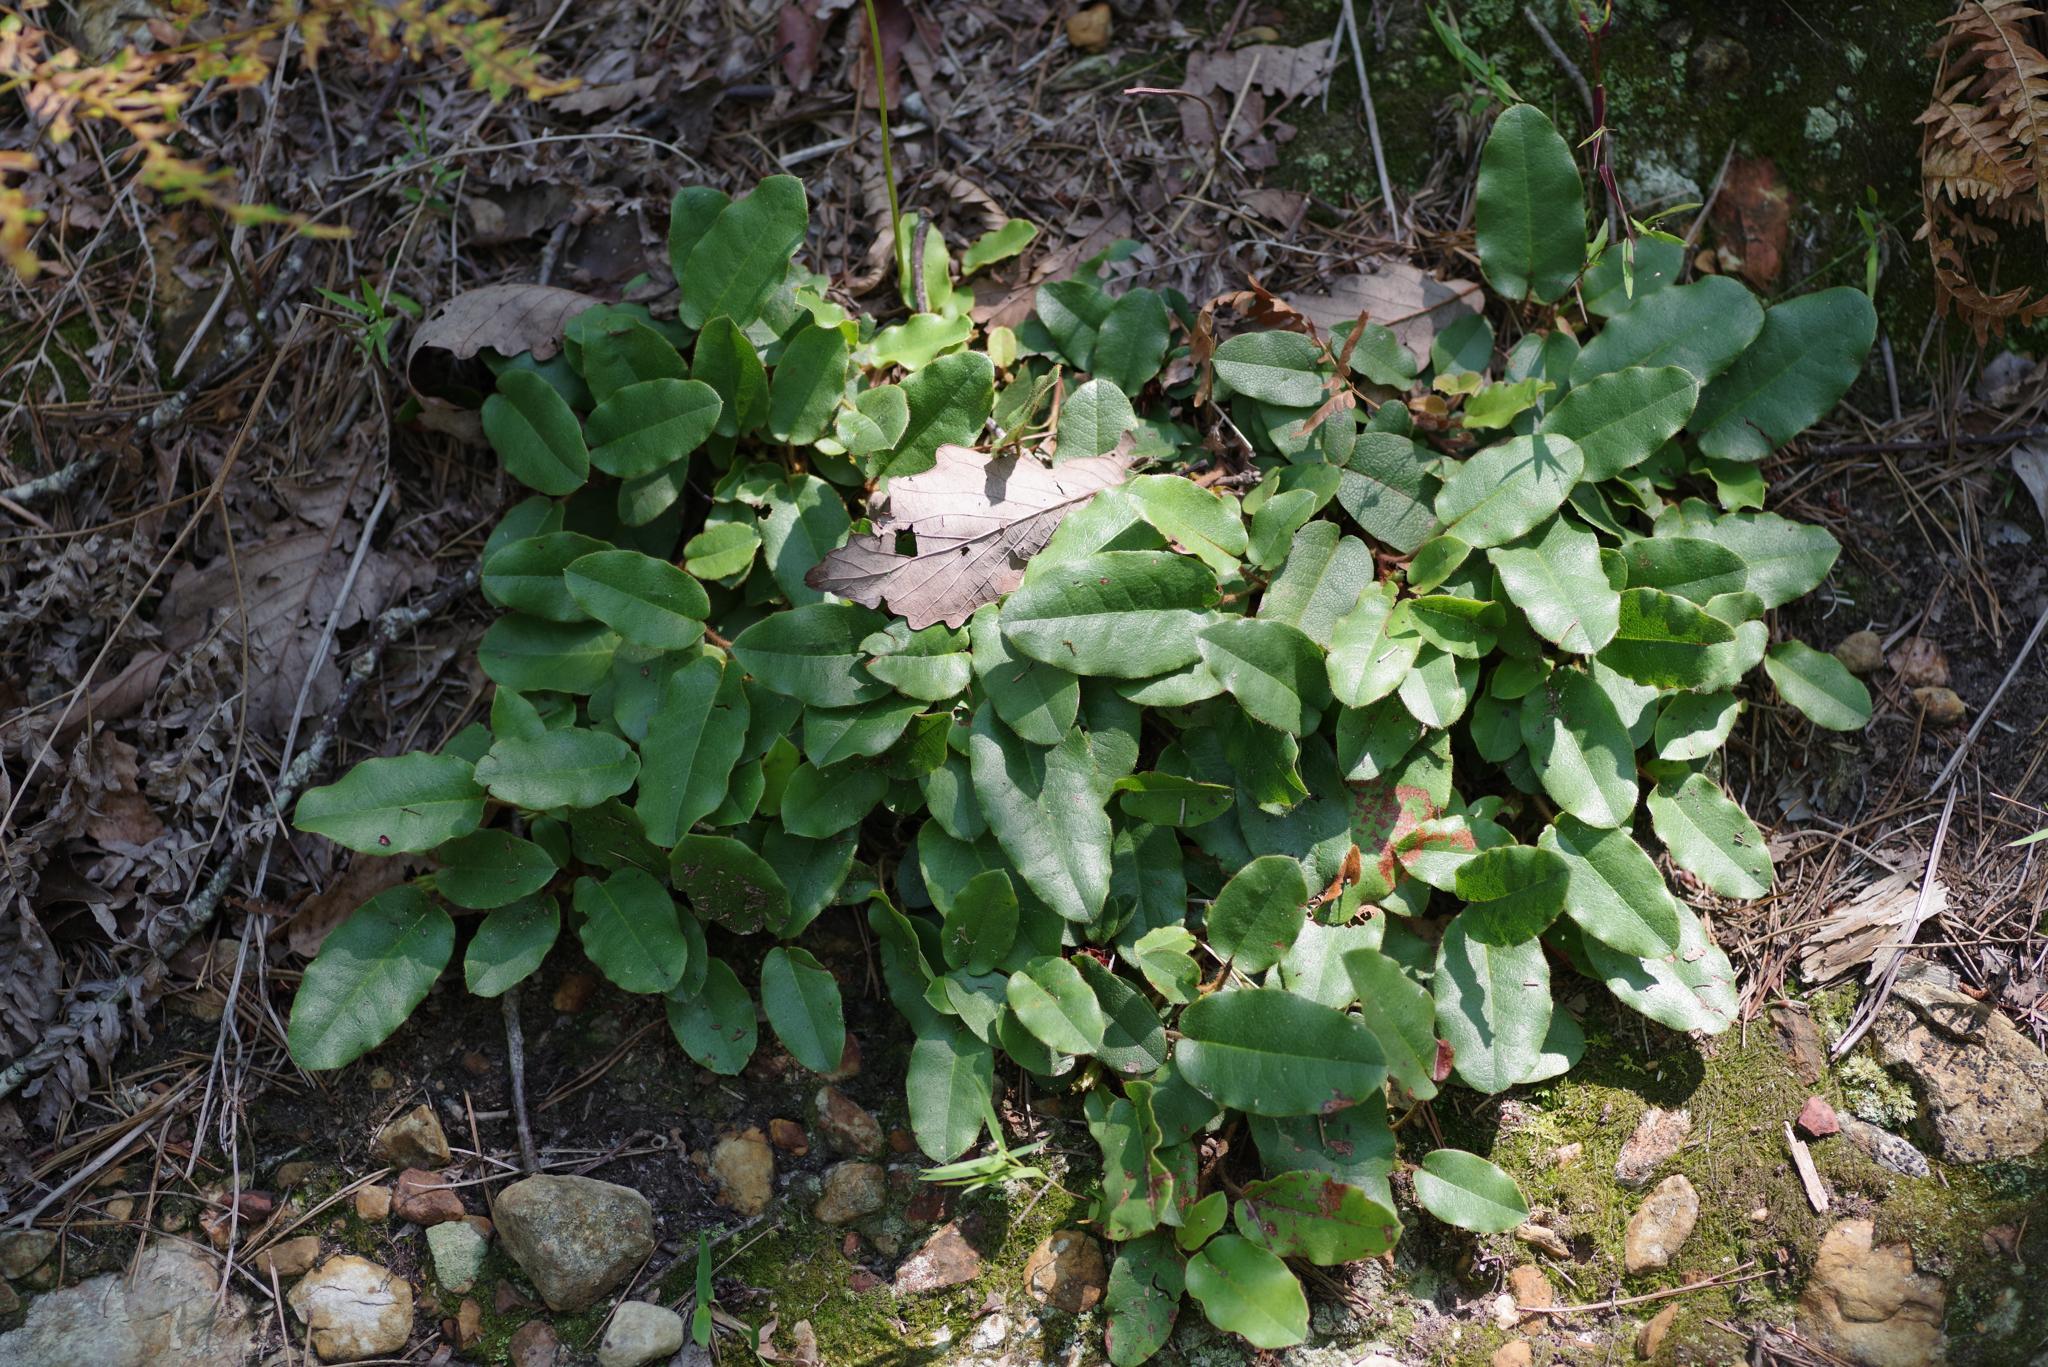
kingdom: Plantae
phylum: Tracheophyta
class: Magnoliopsida
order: Ericales
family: Ericaceae
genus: Epigaea
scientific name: Epigaea repens
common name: Gravelroot
